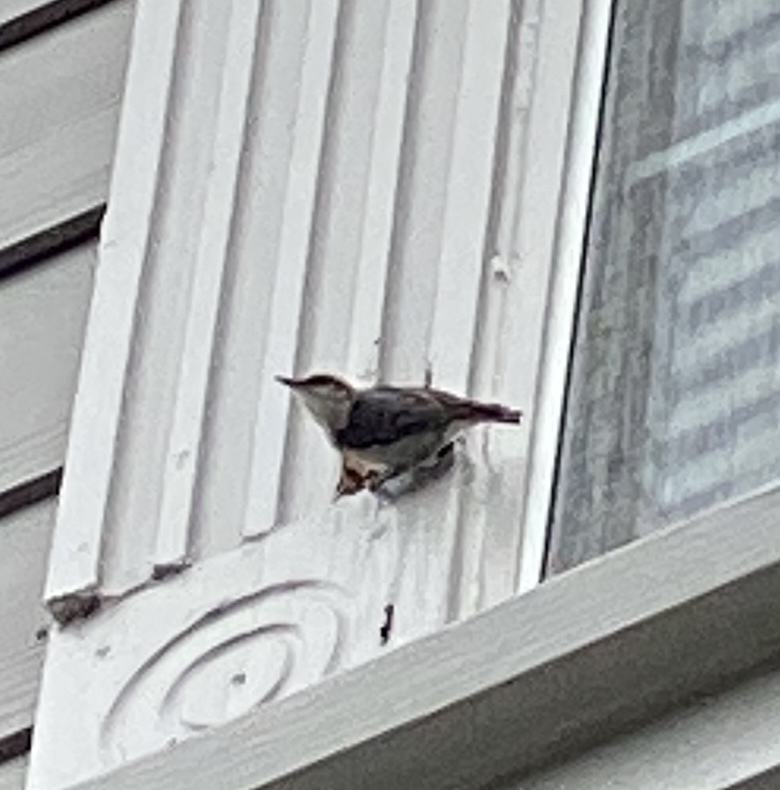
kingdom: Animalia
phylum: Chordata
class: Aves
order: Passeriformes
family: Sittidae
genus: Sitta
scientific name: Sitta pusilla
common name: Brown-headed nuthatch
